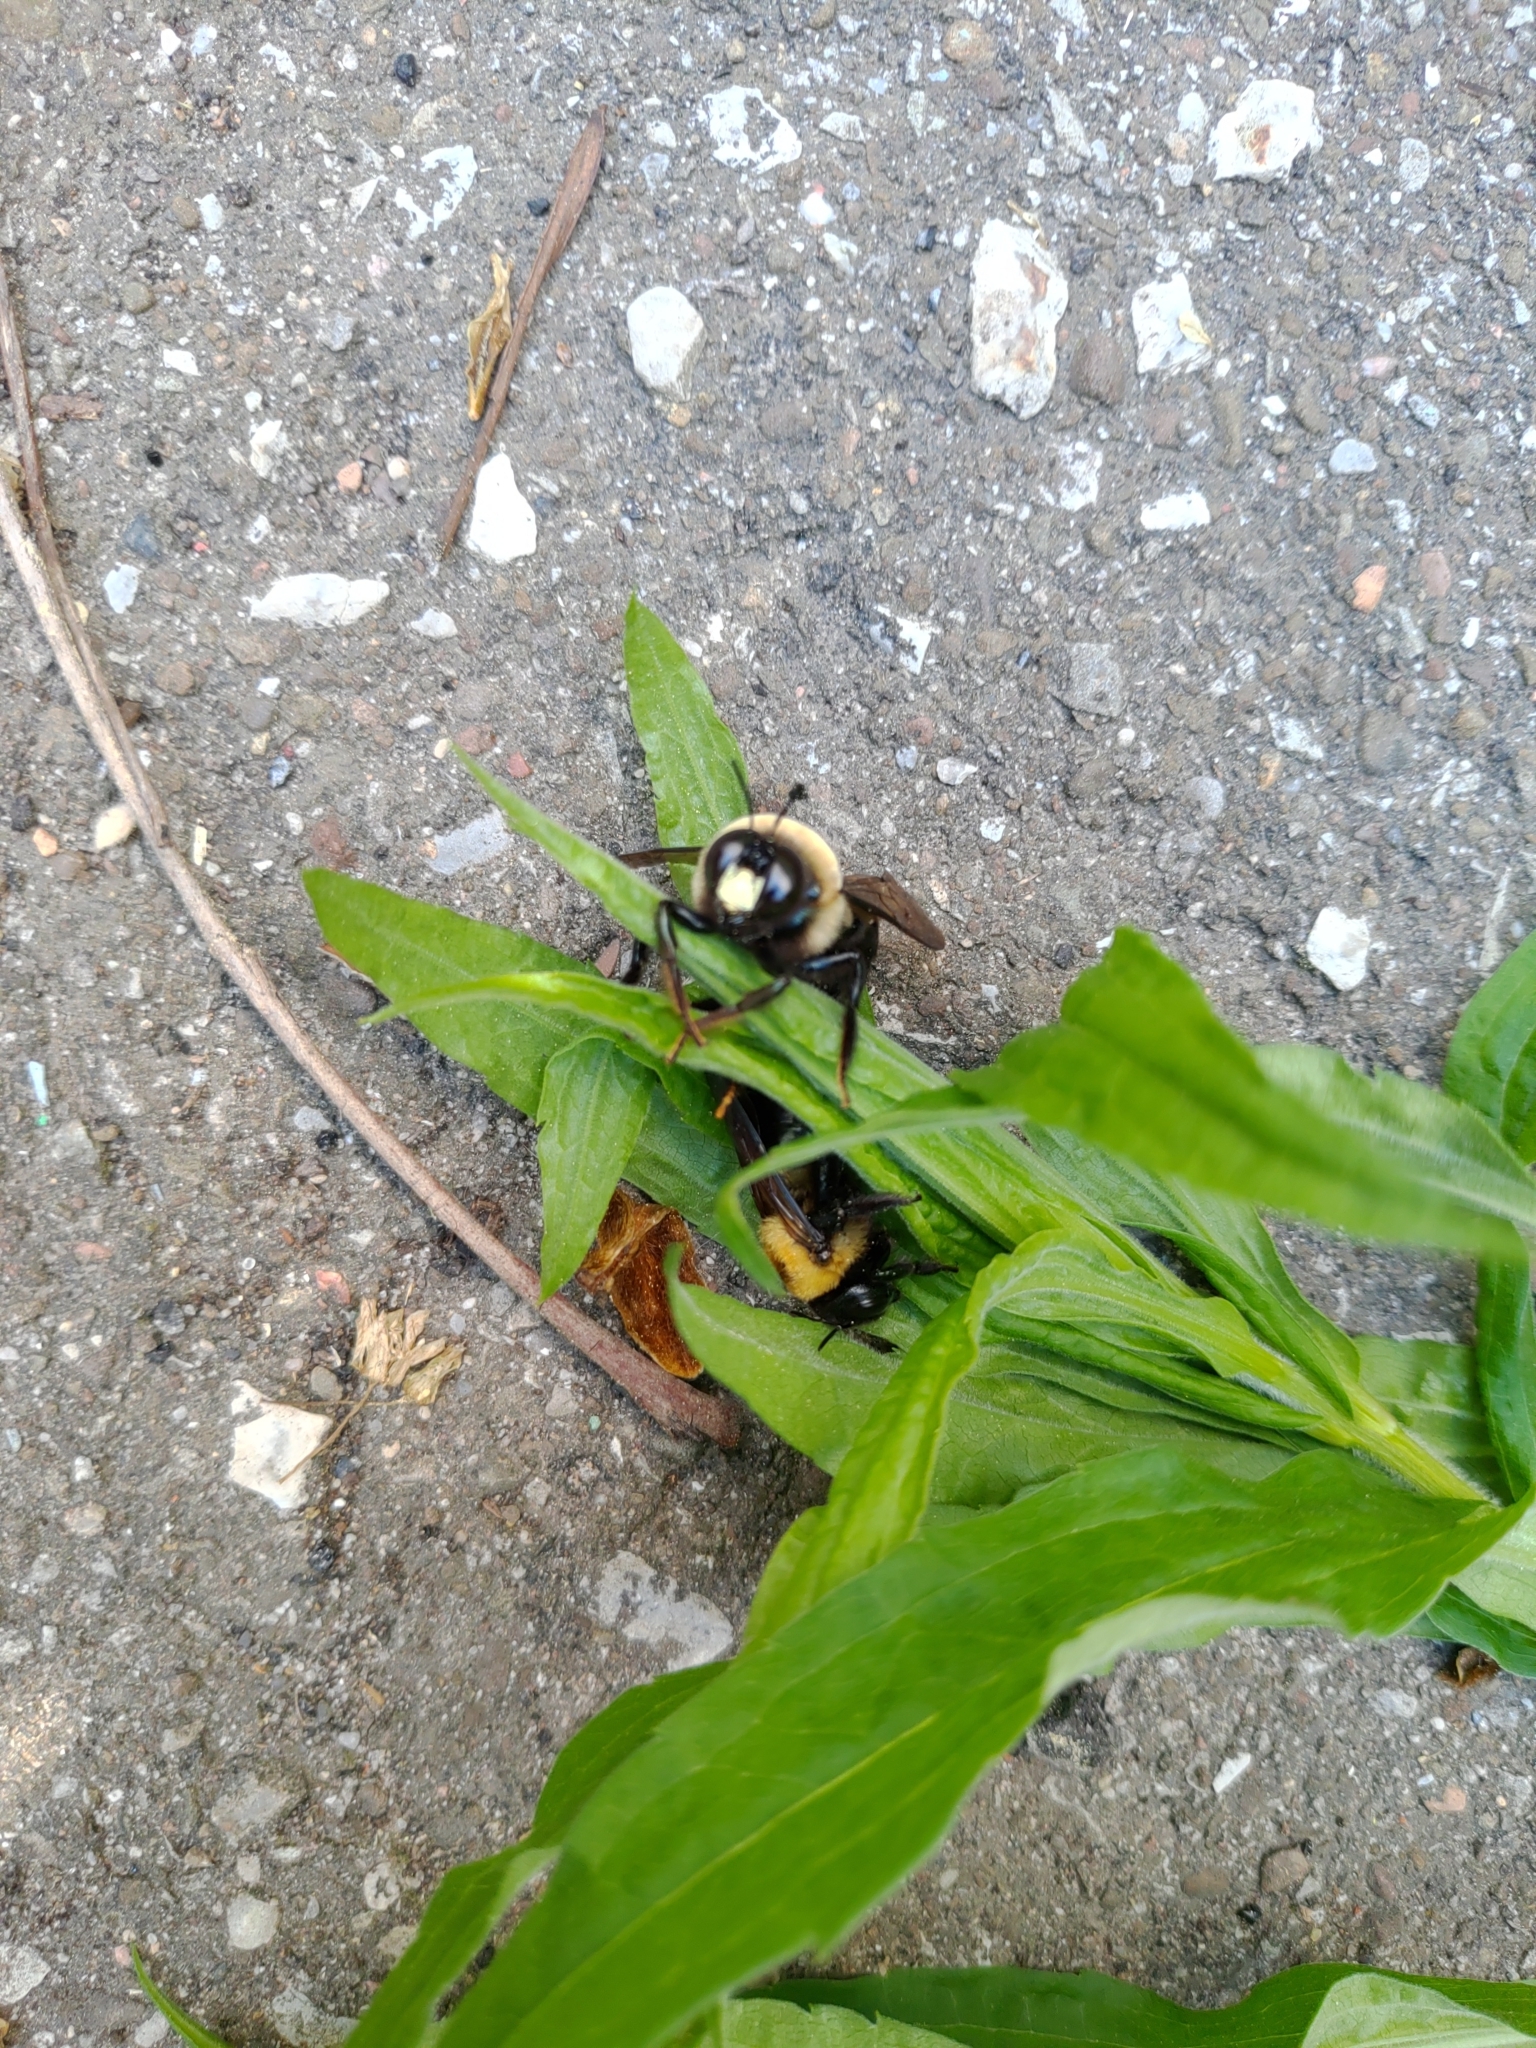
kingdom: Animalia
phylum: Arthropoda
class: Insecta
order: Hymenoptera
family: Apidae
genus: Xylocopa
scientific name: Xylocopa virginica
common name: Carpenter bee
